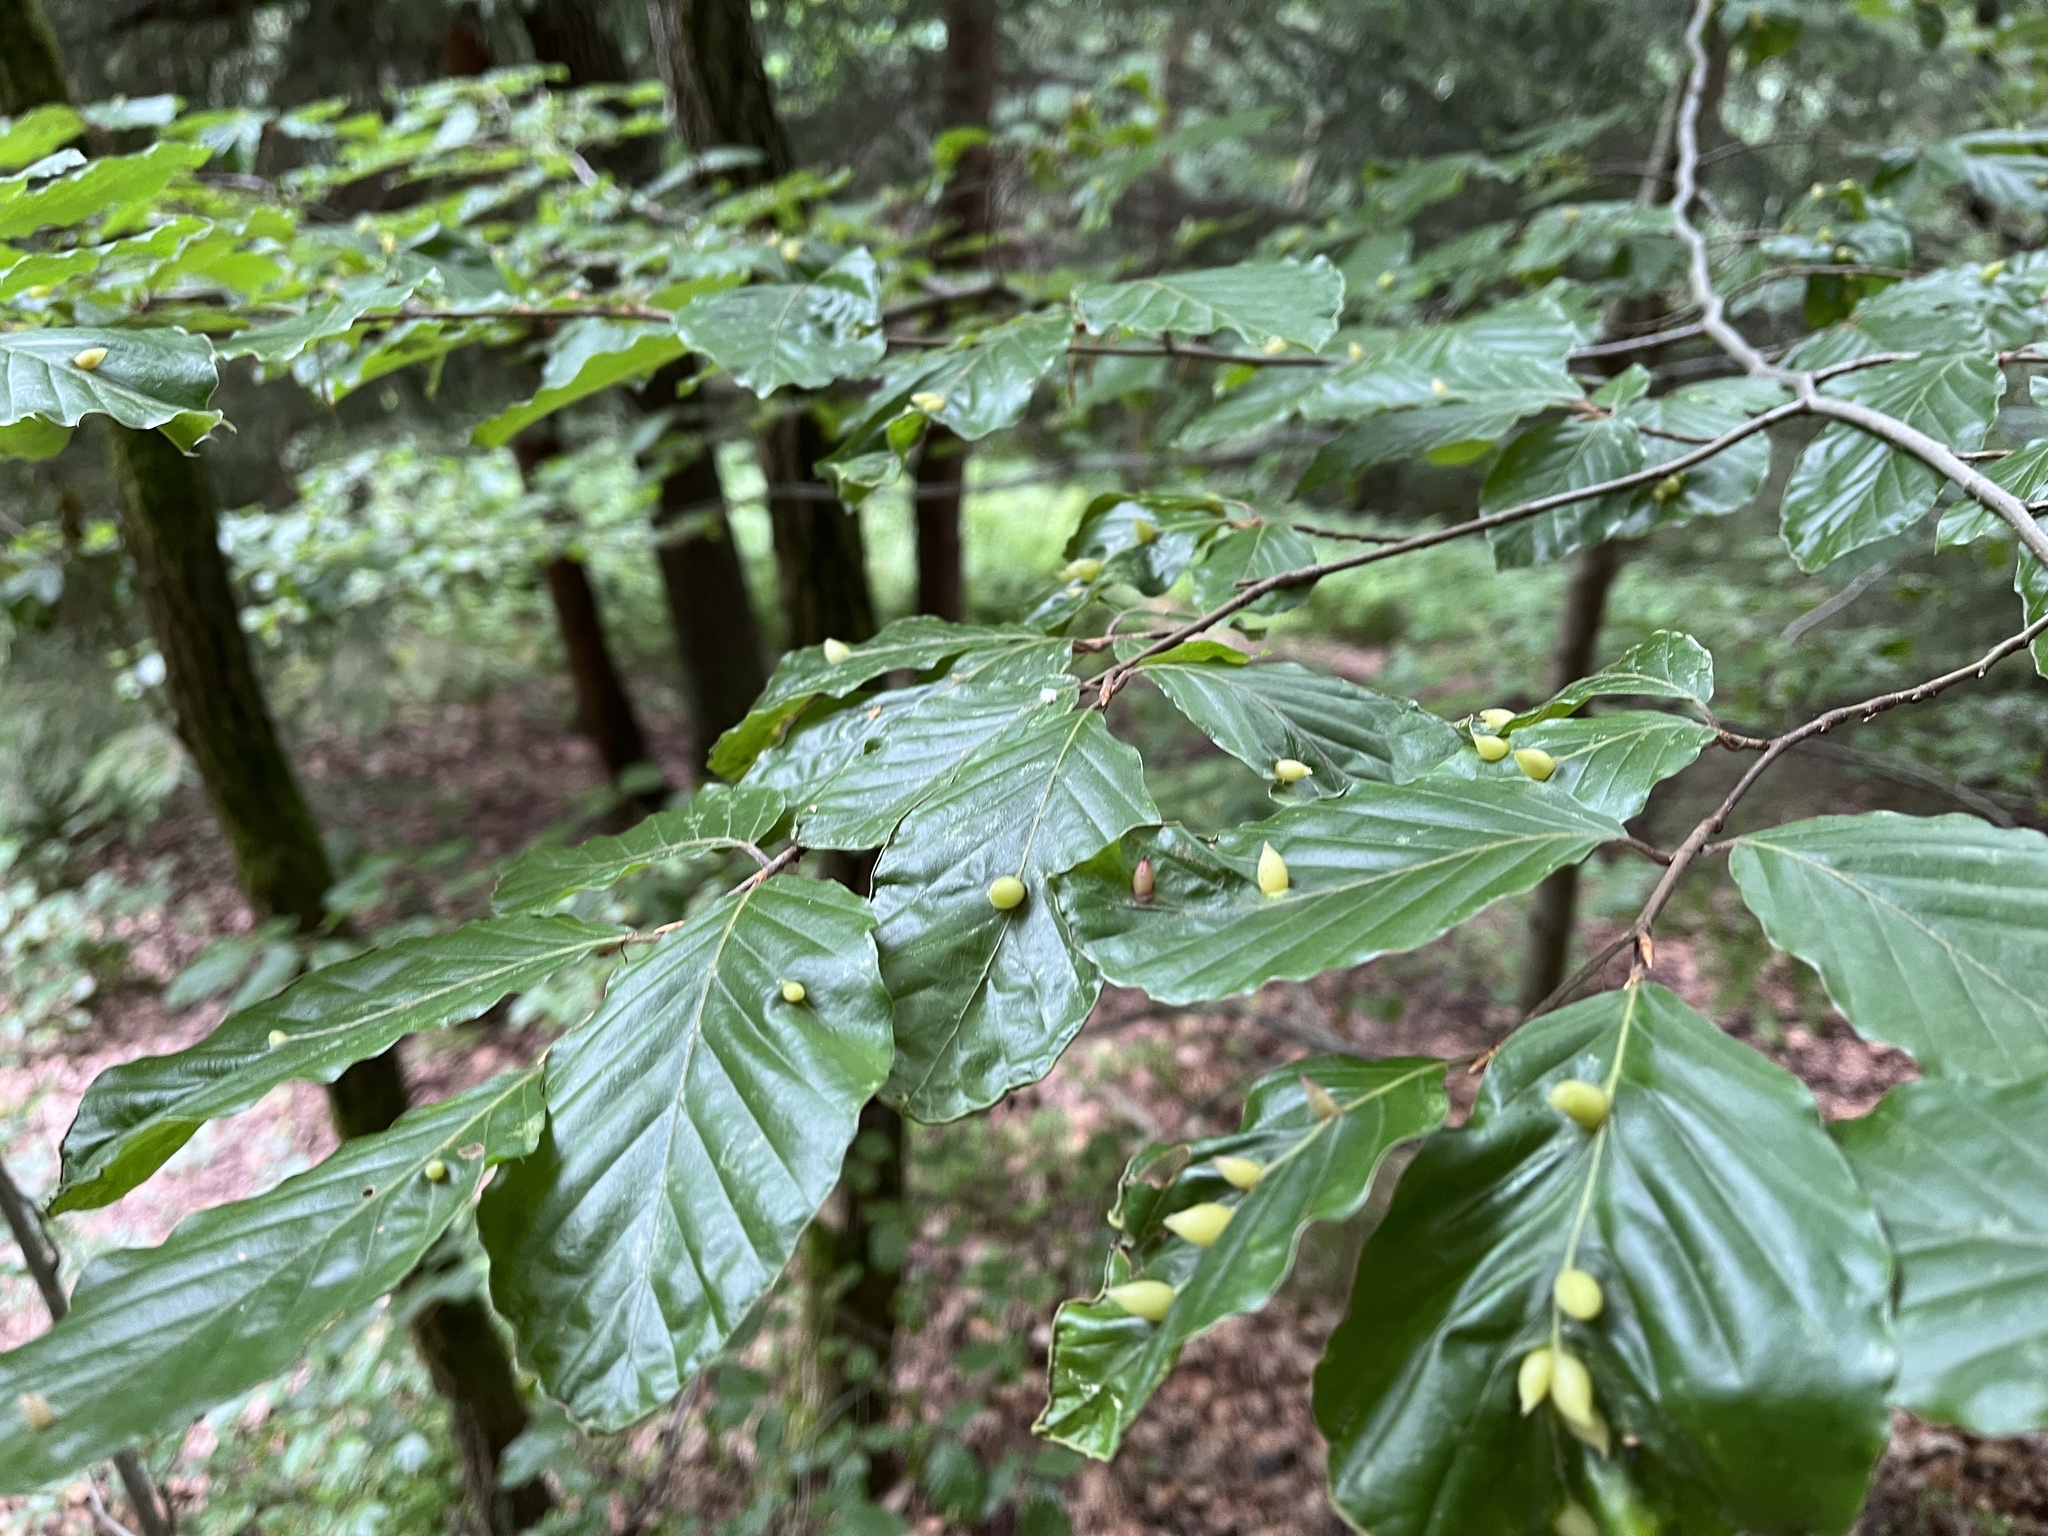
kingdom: Animalia
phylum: Arthropoda
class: Insecta
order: Diptera
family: Cecidomyiidae
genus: Mikiola
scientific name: Mikiola fagi
